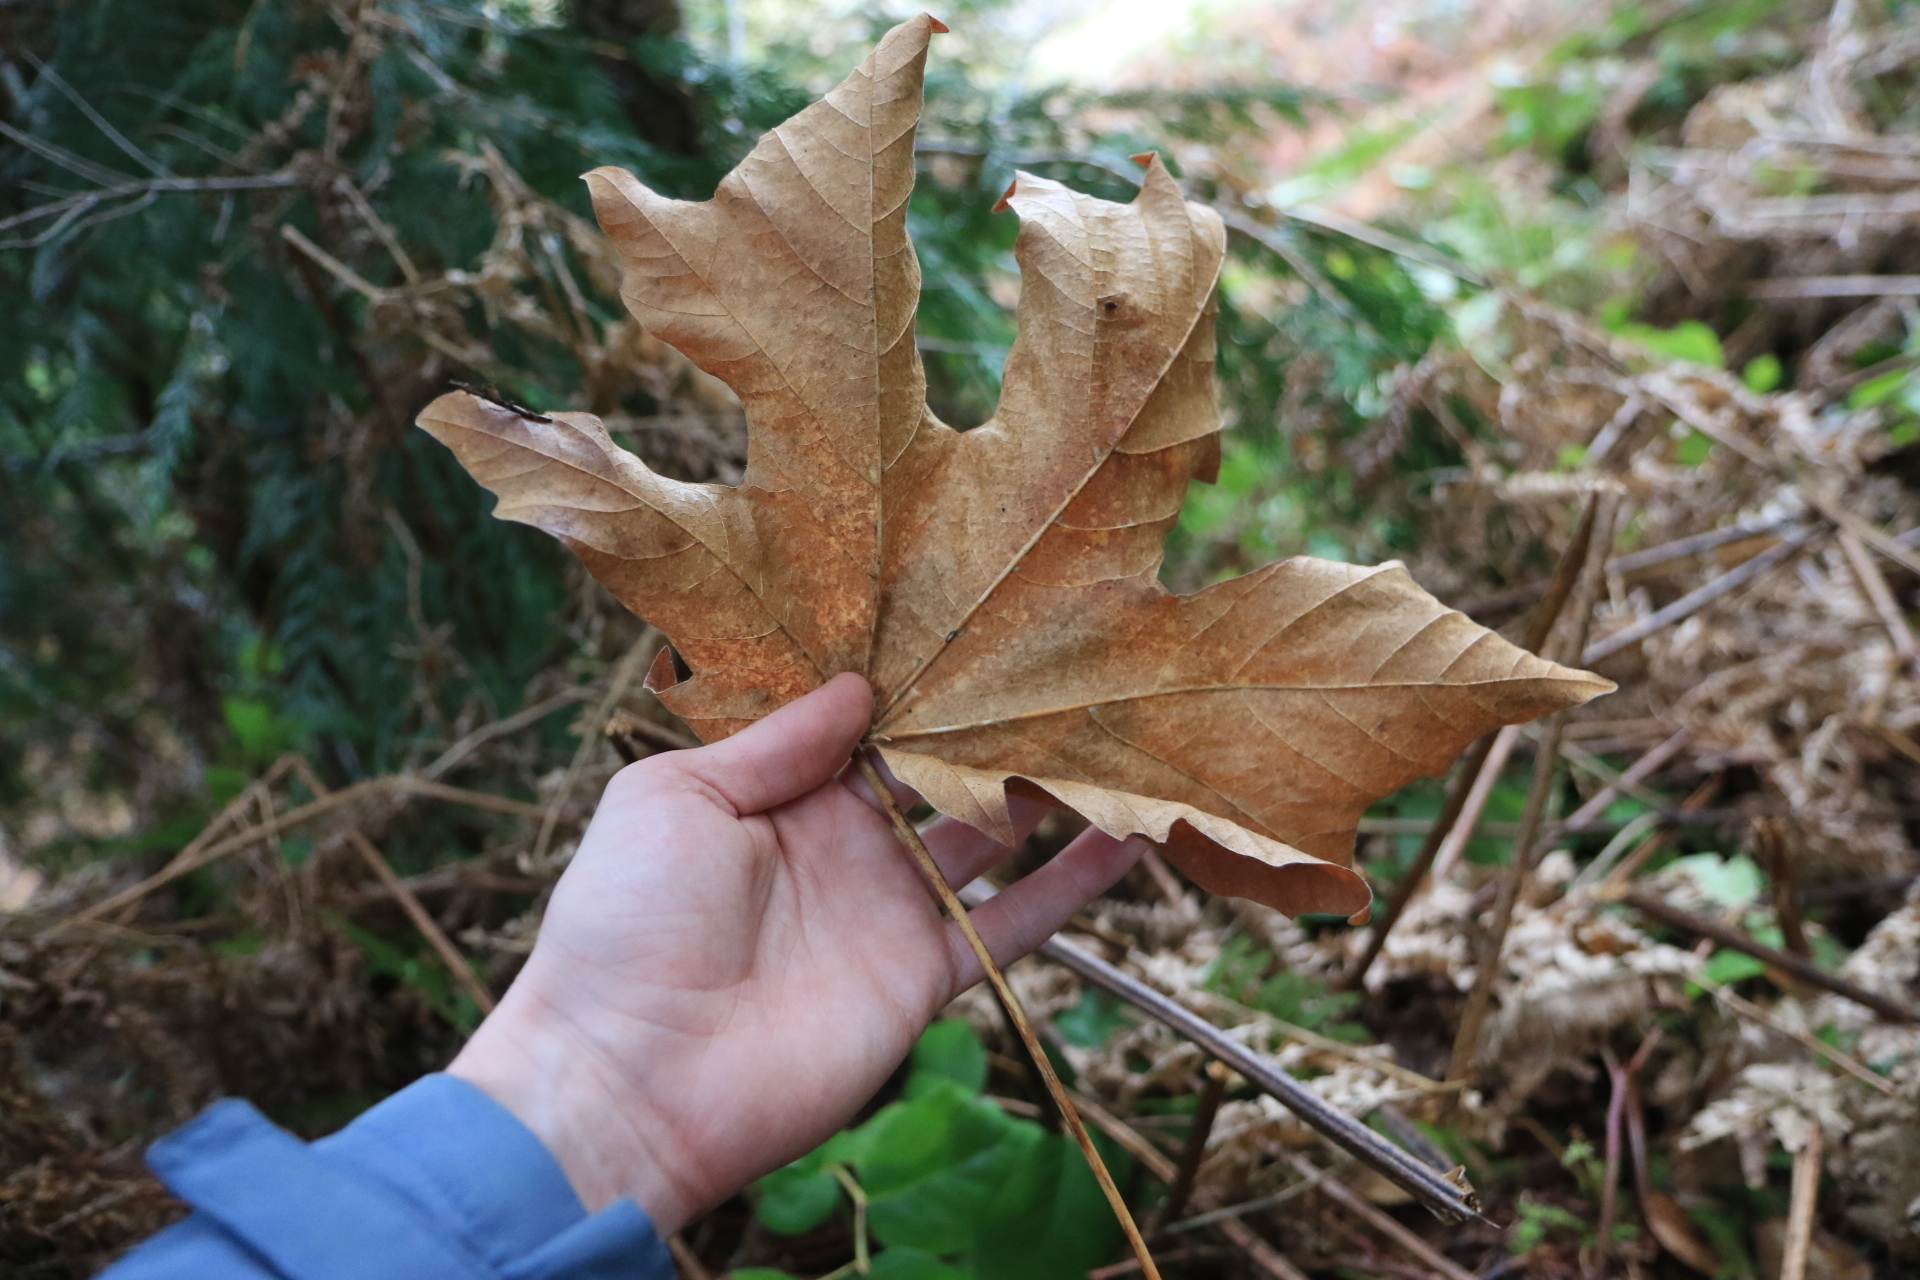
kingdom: Plantae
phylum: Tracheophyta
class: Magnoliopsida
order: Sapindales
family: Sapindaceae
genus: Acer
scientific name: Acer macrophyllum
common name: Oregon maple
